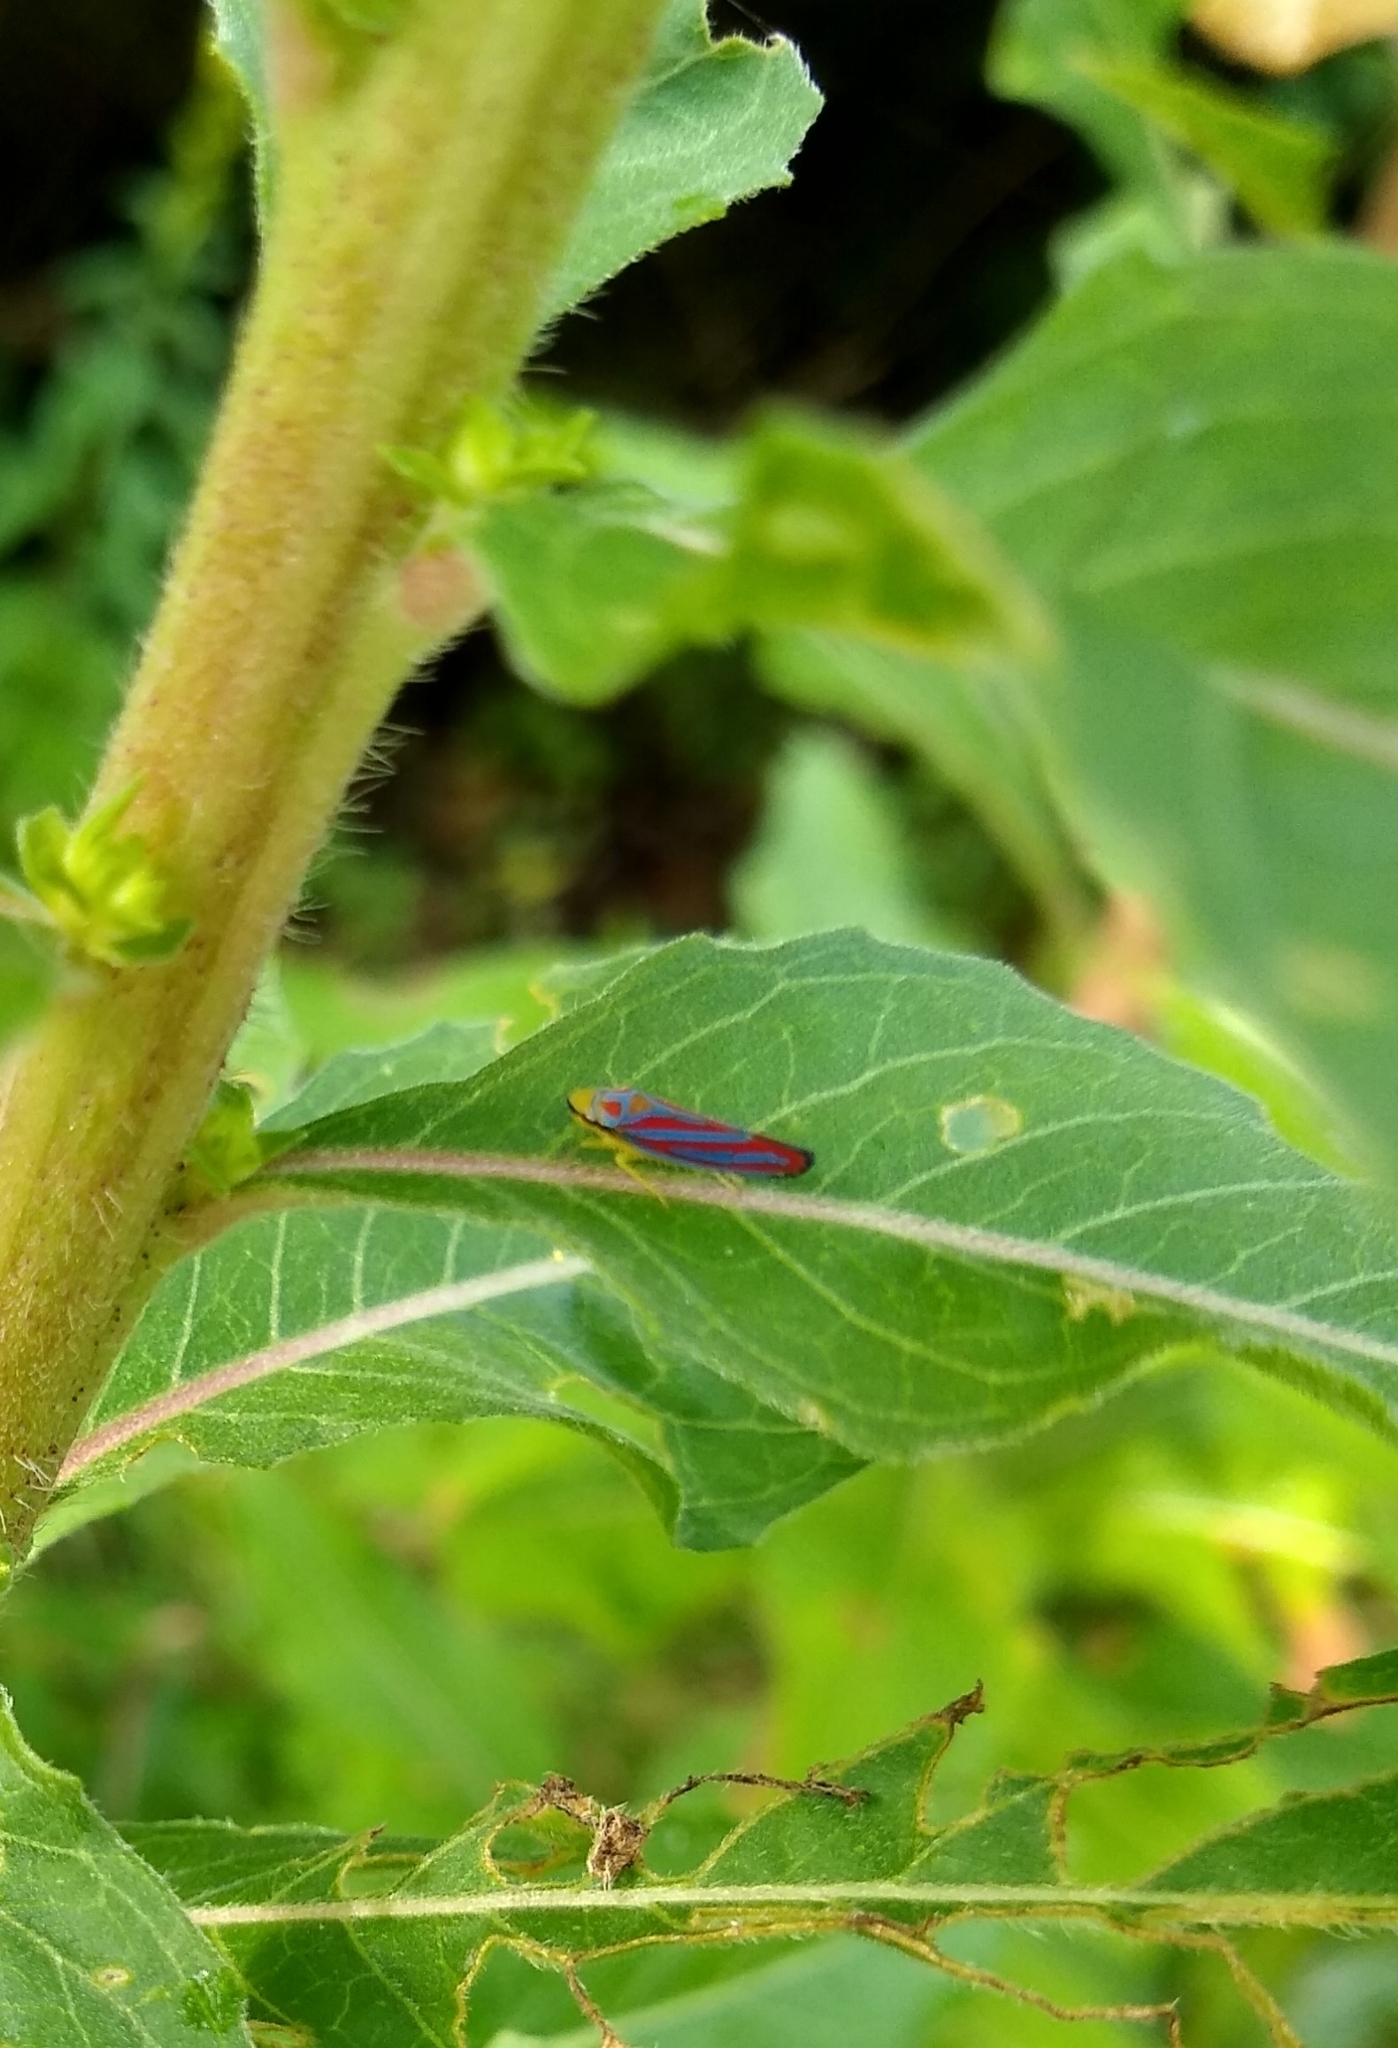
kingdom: Animalia
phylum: Arthropoda
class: Insecta
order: Hemiptera
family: Cicadellidae
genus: Graphocephala
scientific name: Graphocephala coccinea
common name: Candy-striped leafhopper
